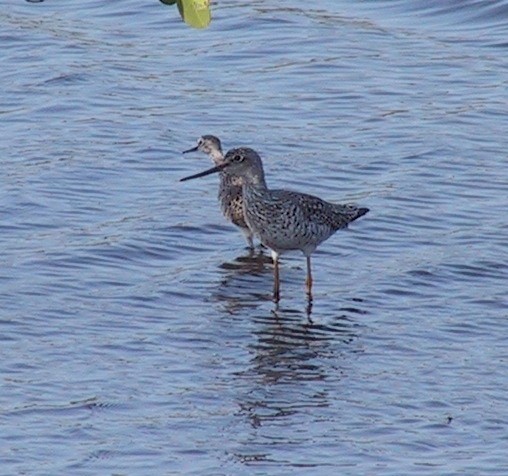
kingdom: Animalia
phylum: Chordata
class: Aves
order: Charadriiformes
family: Scolopacidae
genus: Tringa
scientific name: Tringa melanoleuca
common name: Greater yellowlegs
